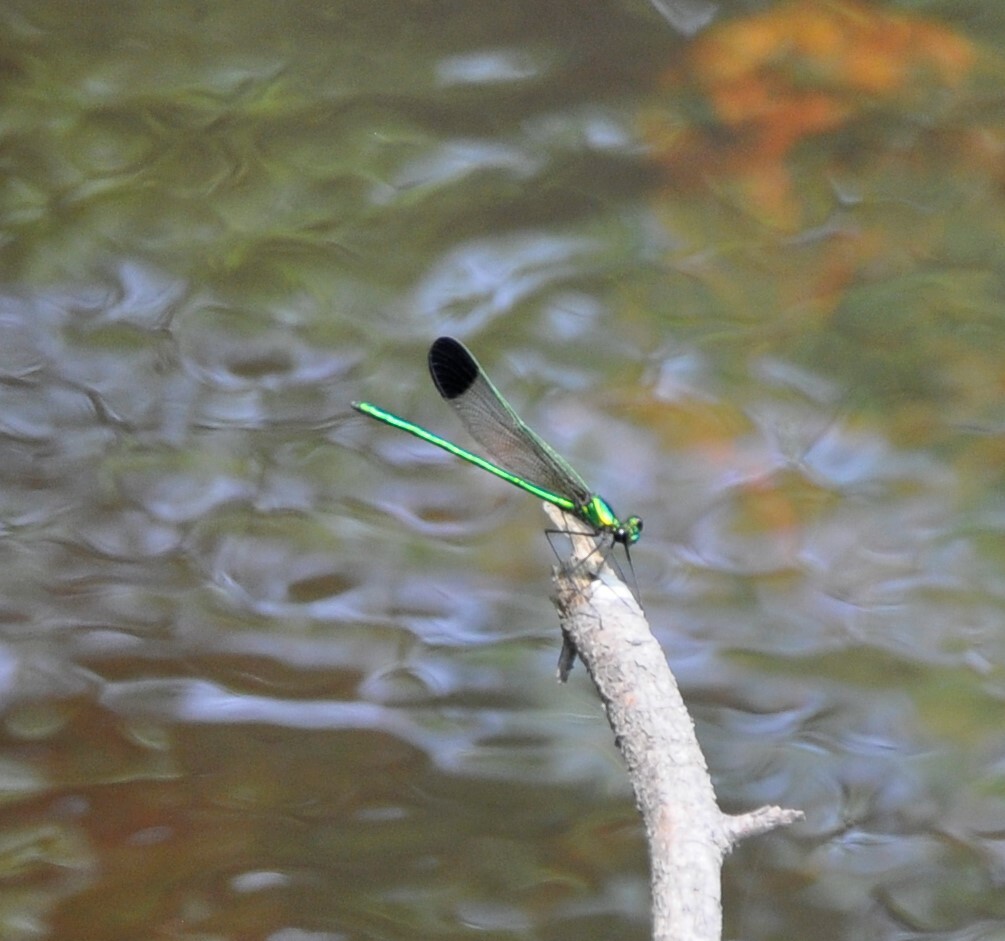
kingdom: Animalia
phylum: Arthropoda
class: Insecta
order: Odonata
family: Calopterygidae
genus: Calopteryx
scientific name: Calopteryx dimidiata
